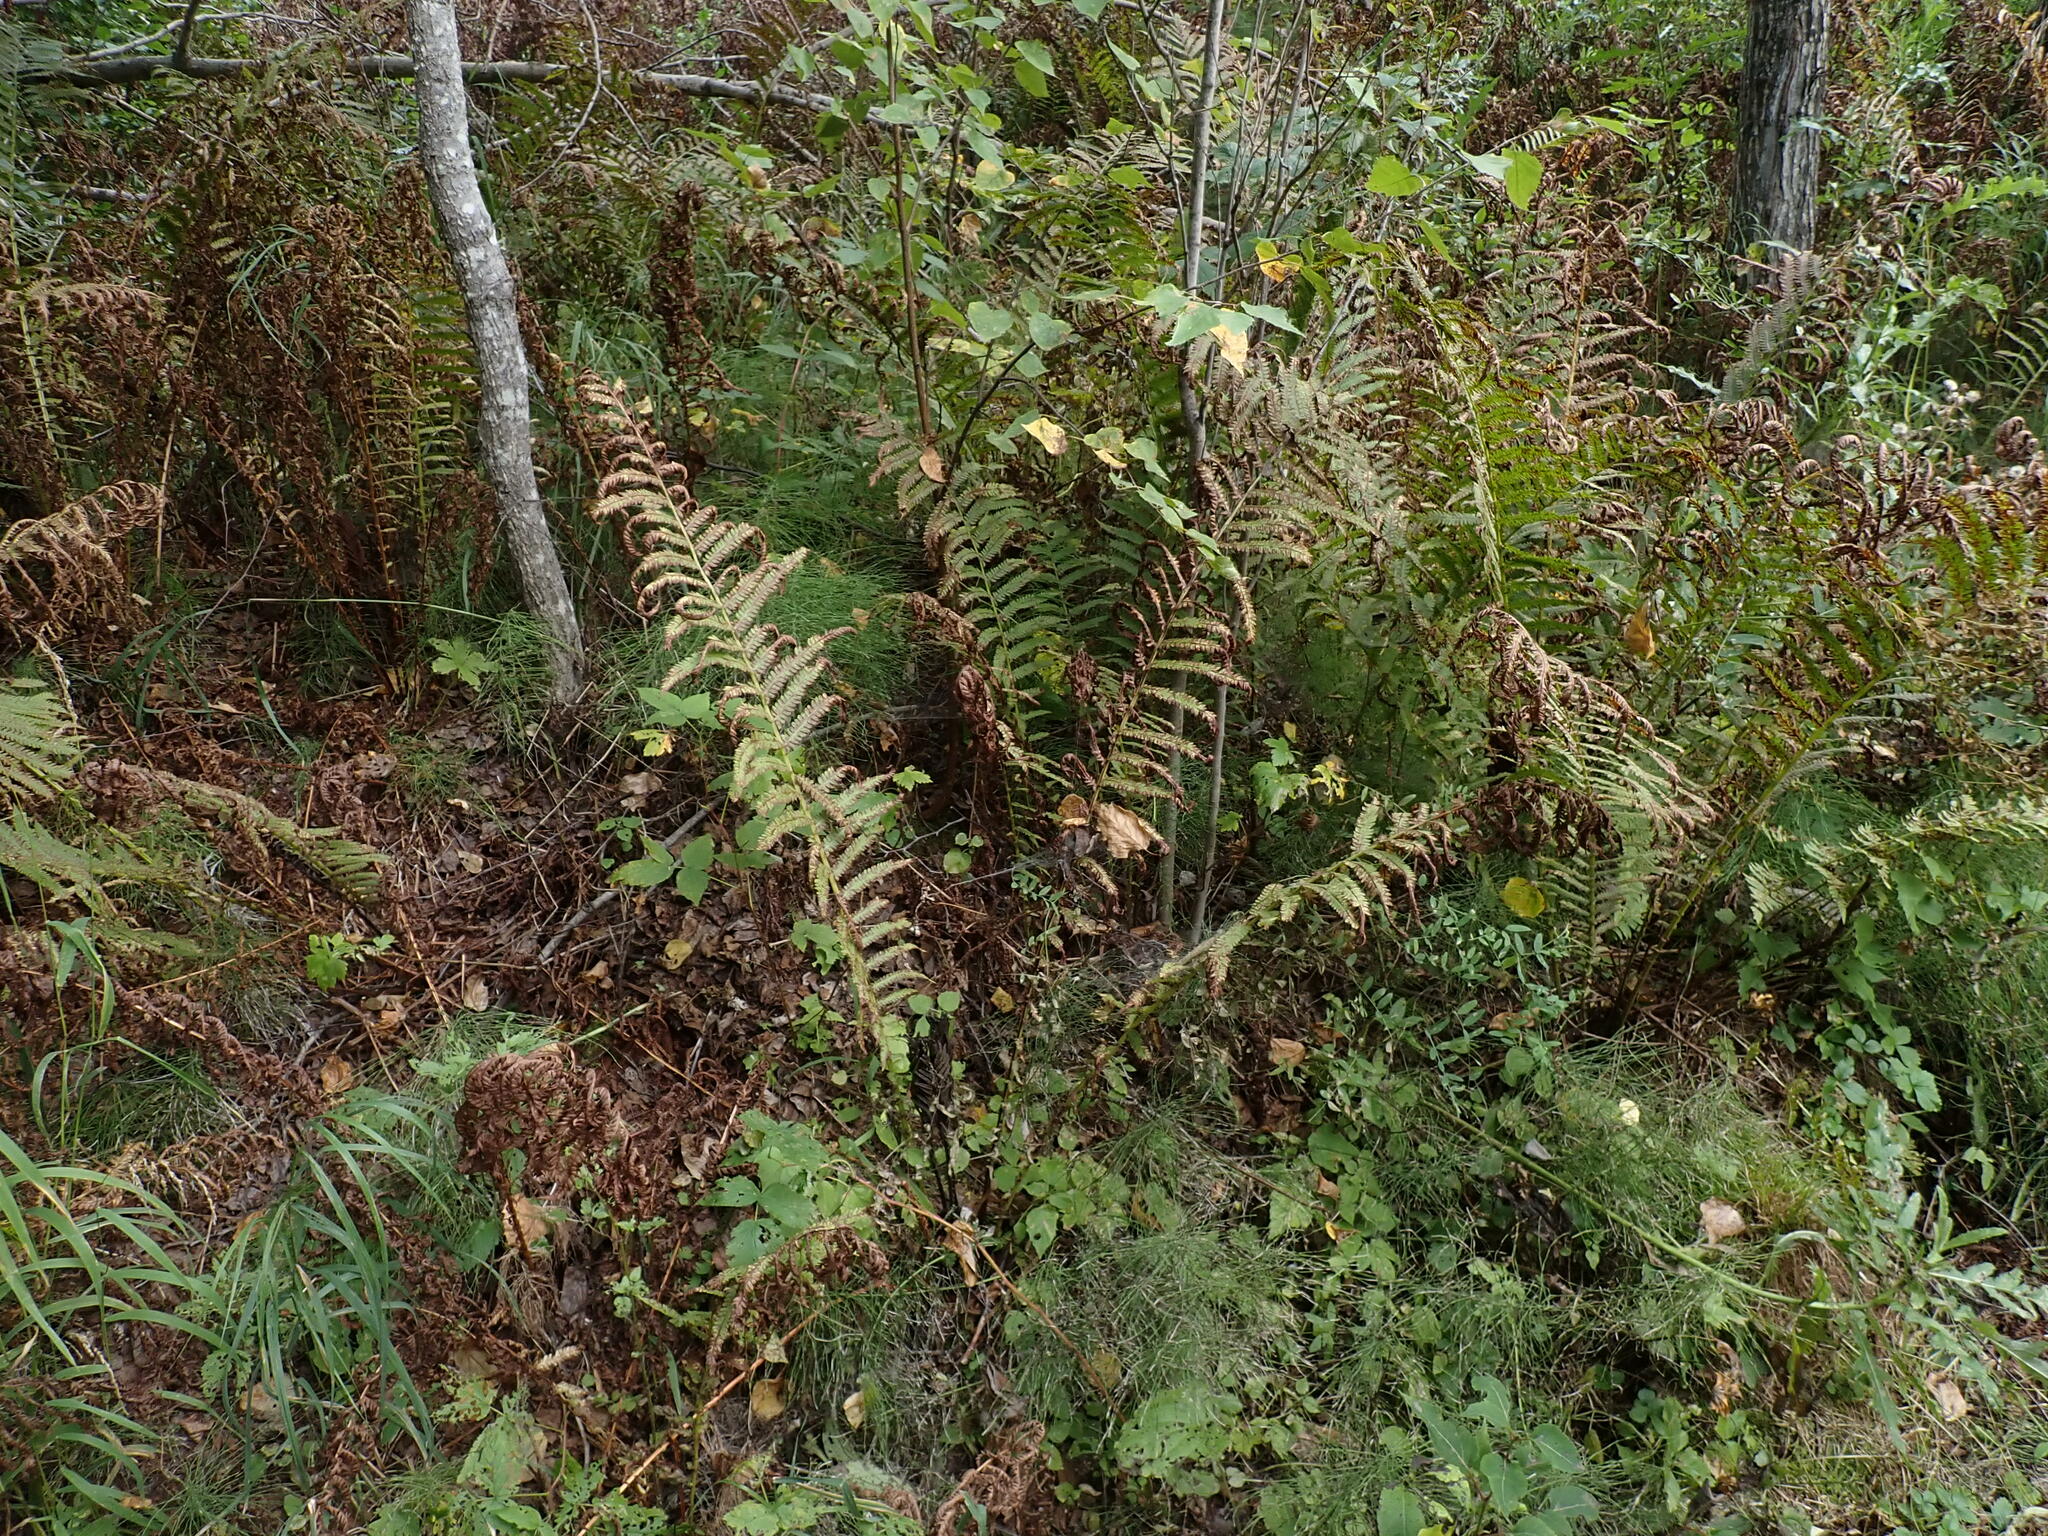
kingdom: Plantae
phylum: Tracheophyta
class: Polypodiopsida
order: Polypodiales
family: Onocleaceae
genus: Matteuccia
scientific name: Matteuccia struthiopteris
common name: Ostrich fern
